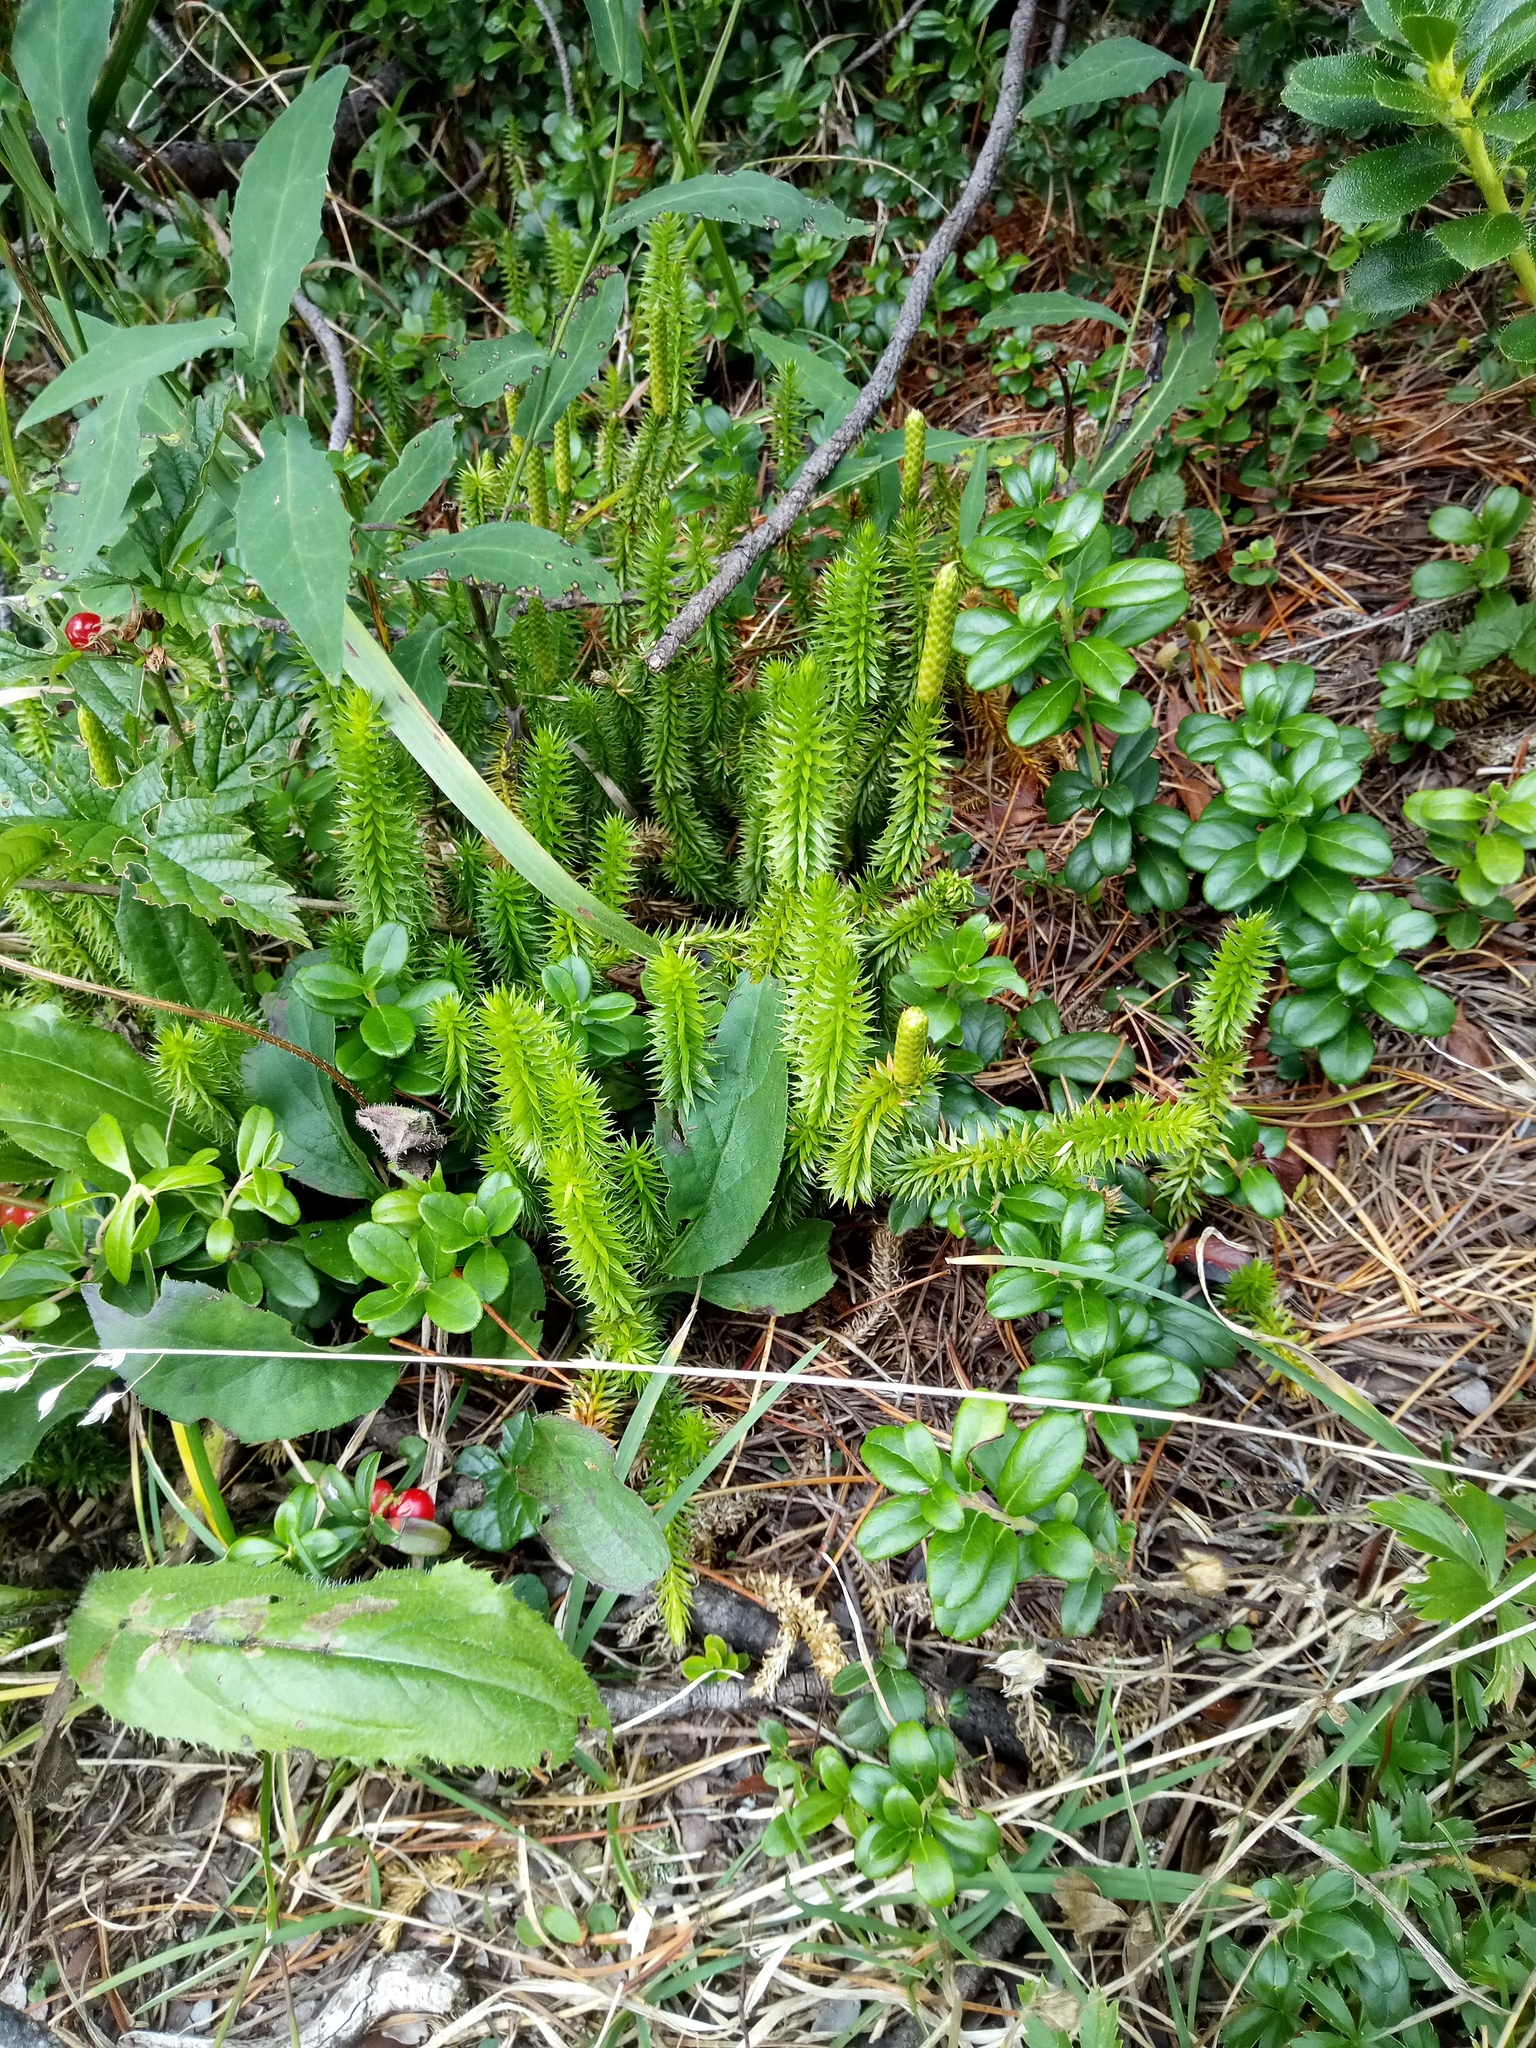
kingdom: Plantae
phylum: Tracheophyta
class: Lycopodiopsida
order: Lycopodiales
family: Lycopodiaceae
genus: Spinulum
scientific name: Spinulum annotinum
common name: Interrupted club-moss
